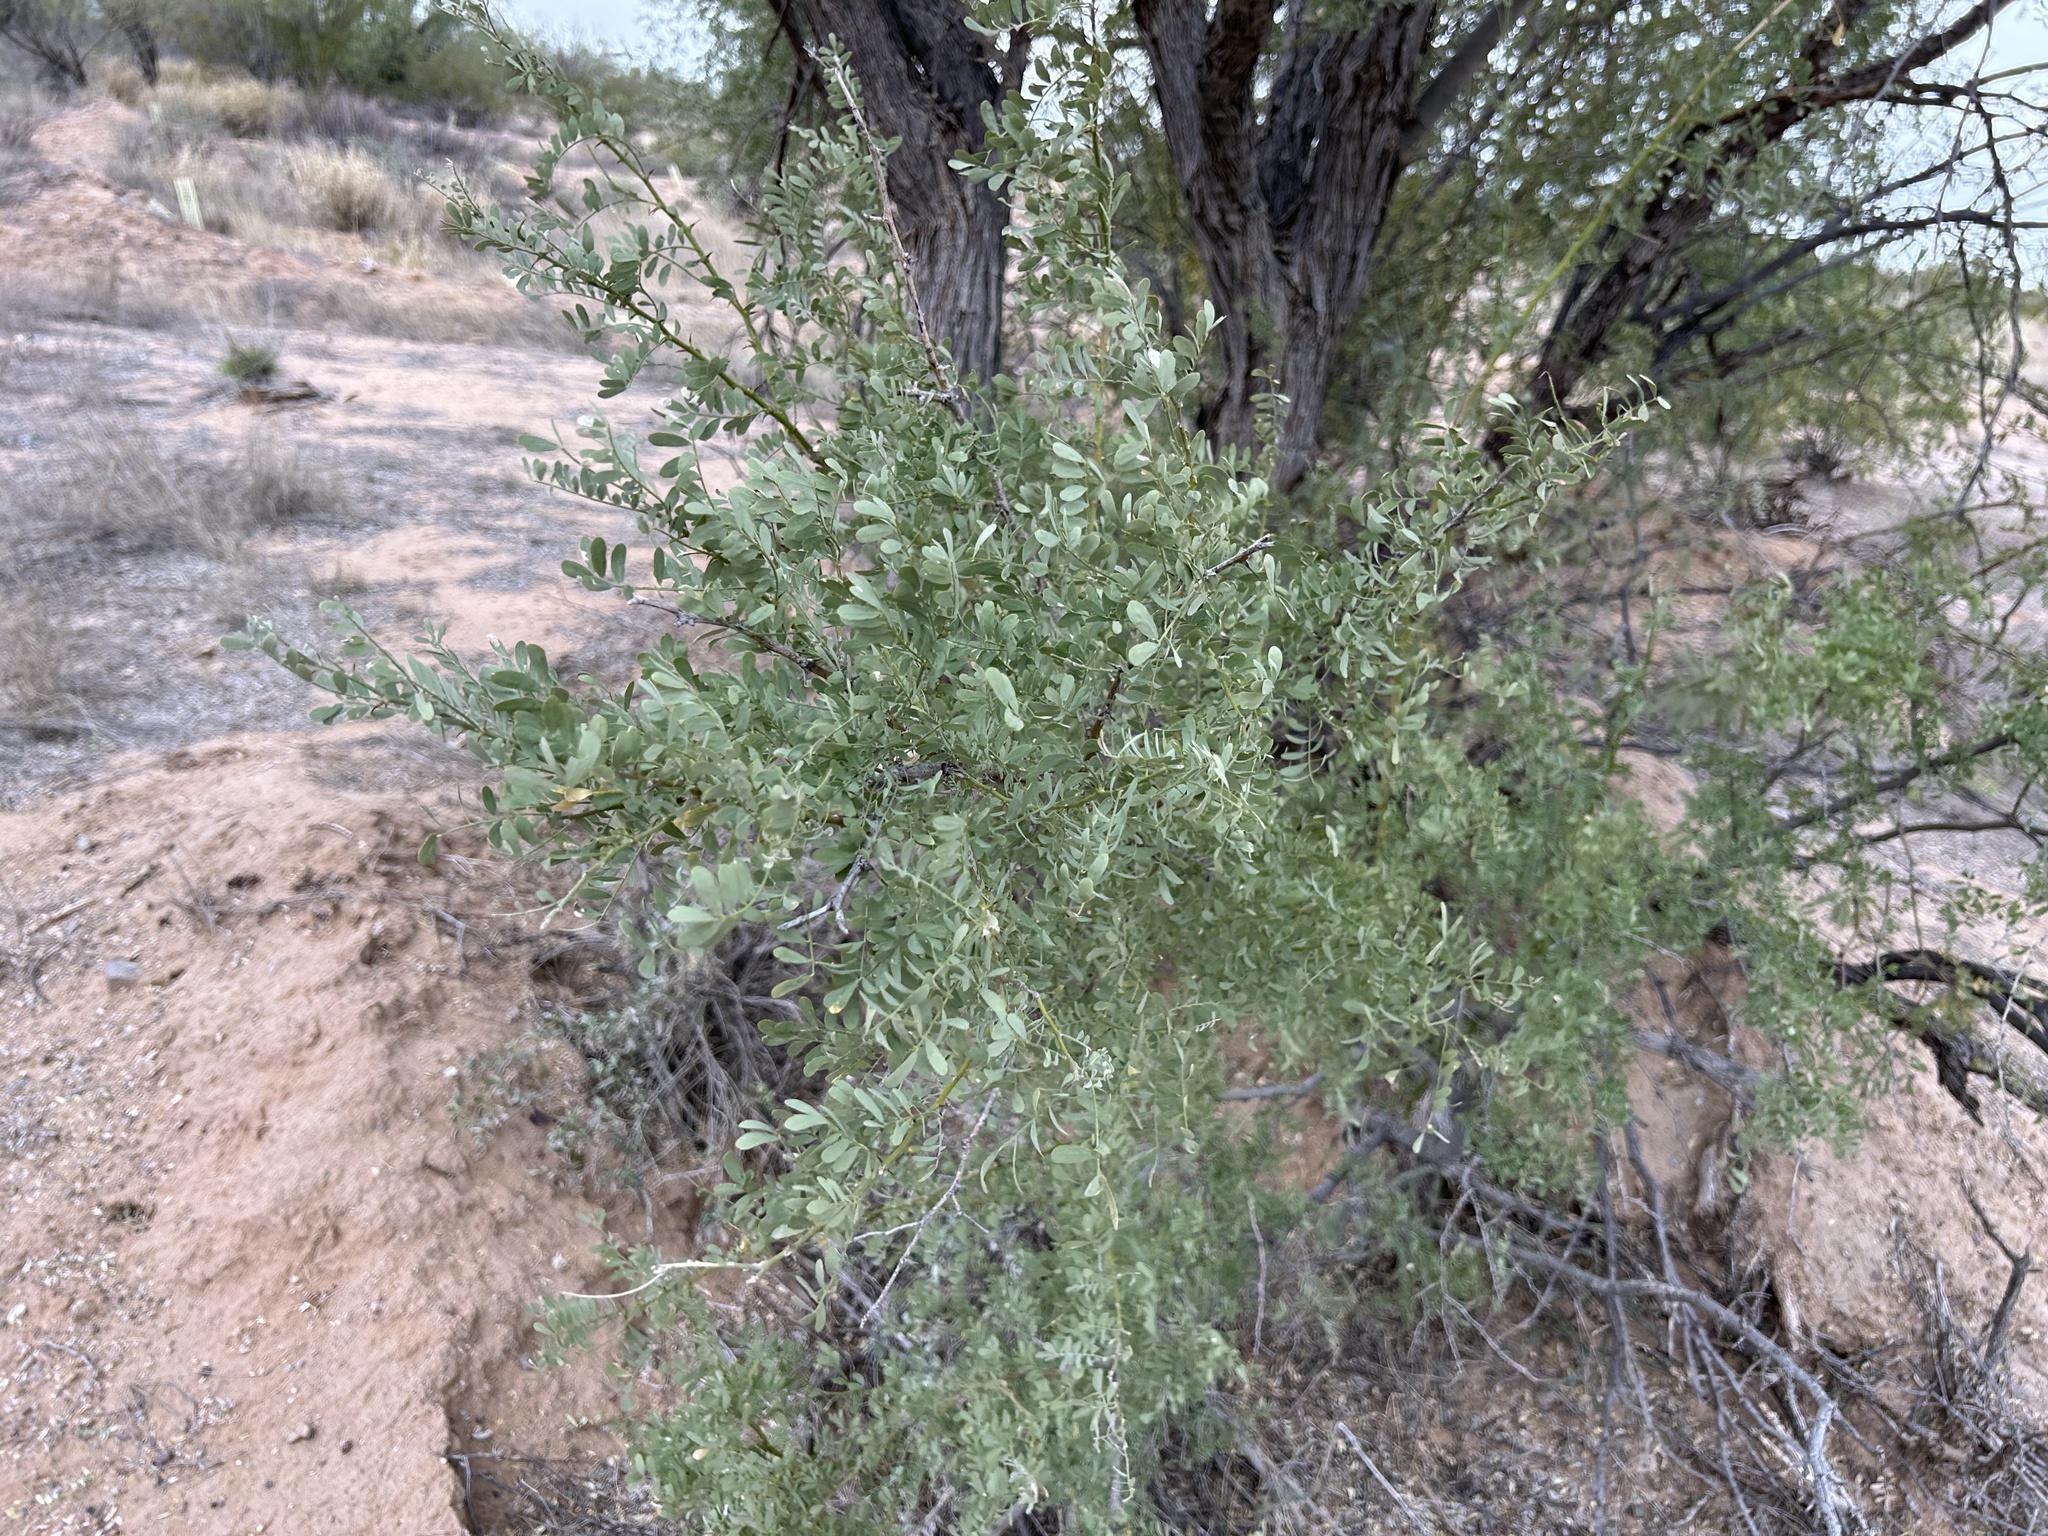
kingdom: Plantae
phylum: Tracheophyta
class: Magnoliopsida
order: Fabales
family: Fabaceae
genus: Olneya
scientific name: Olneya tesota
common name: Desert ironwood
